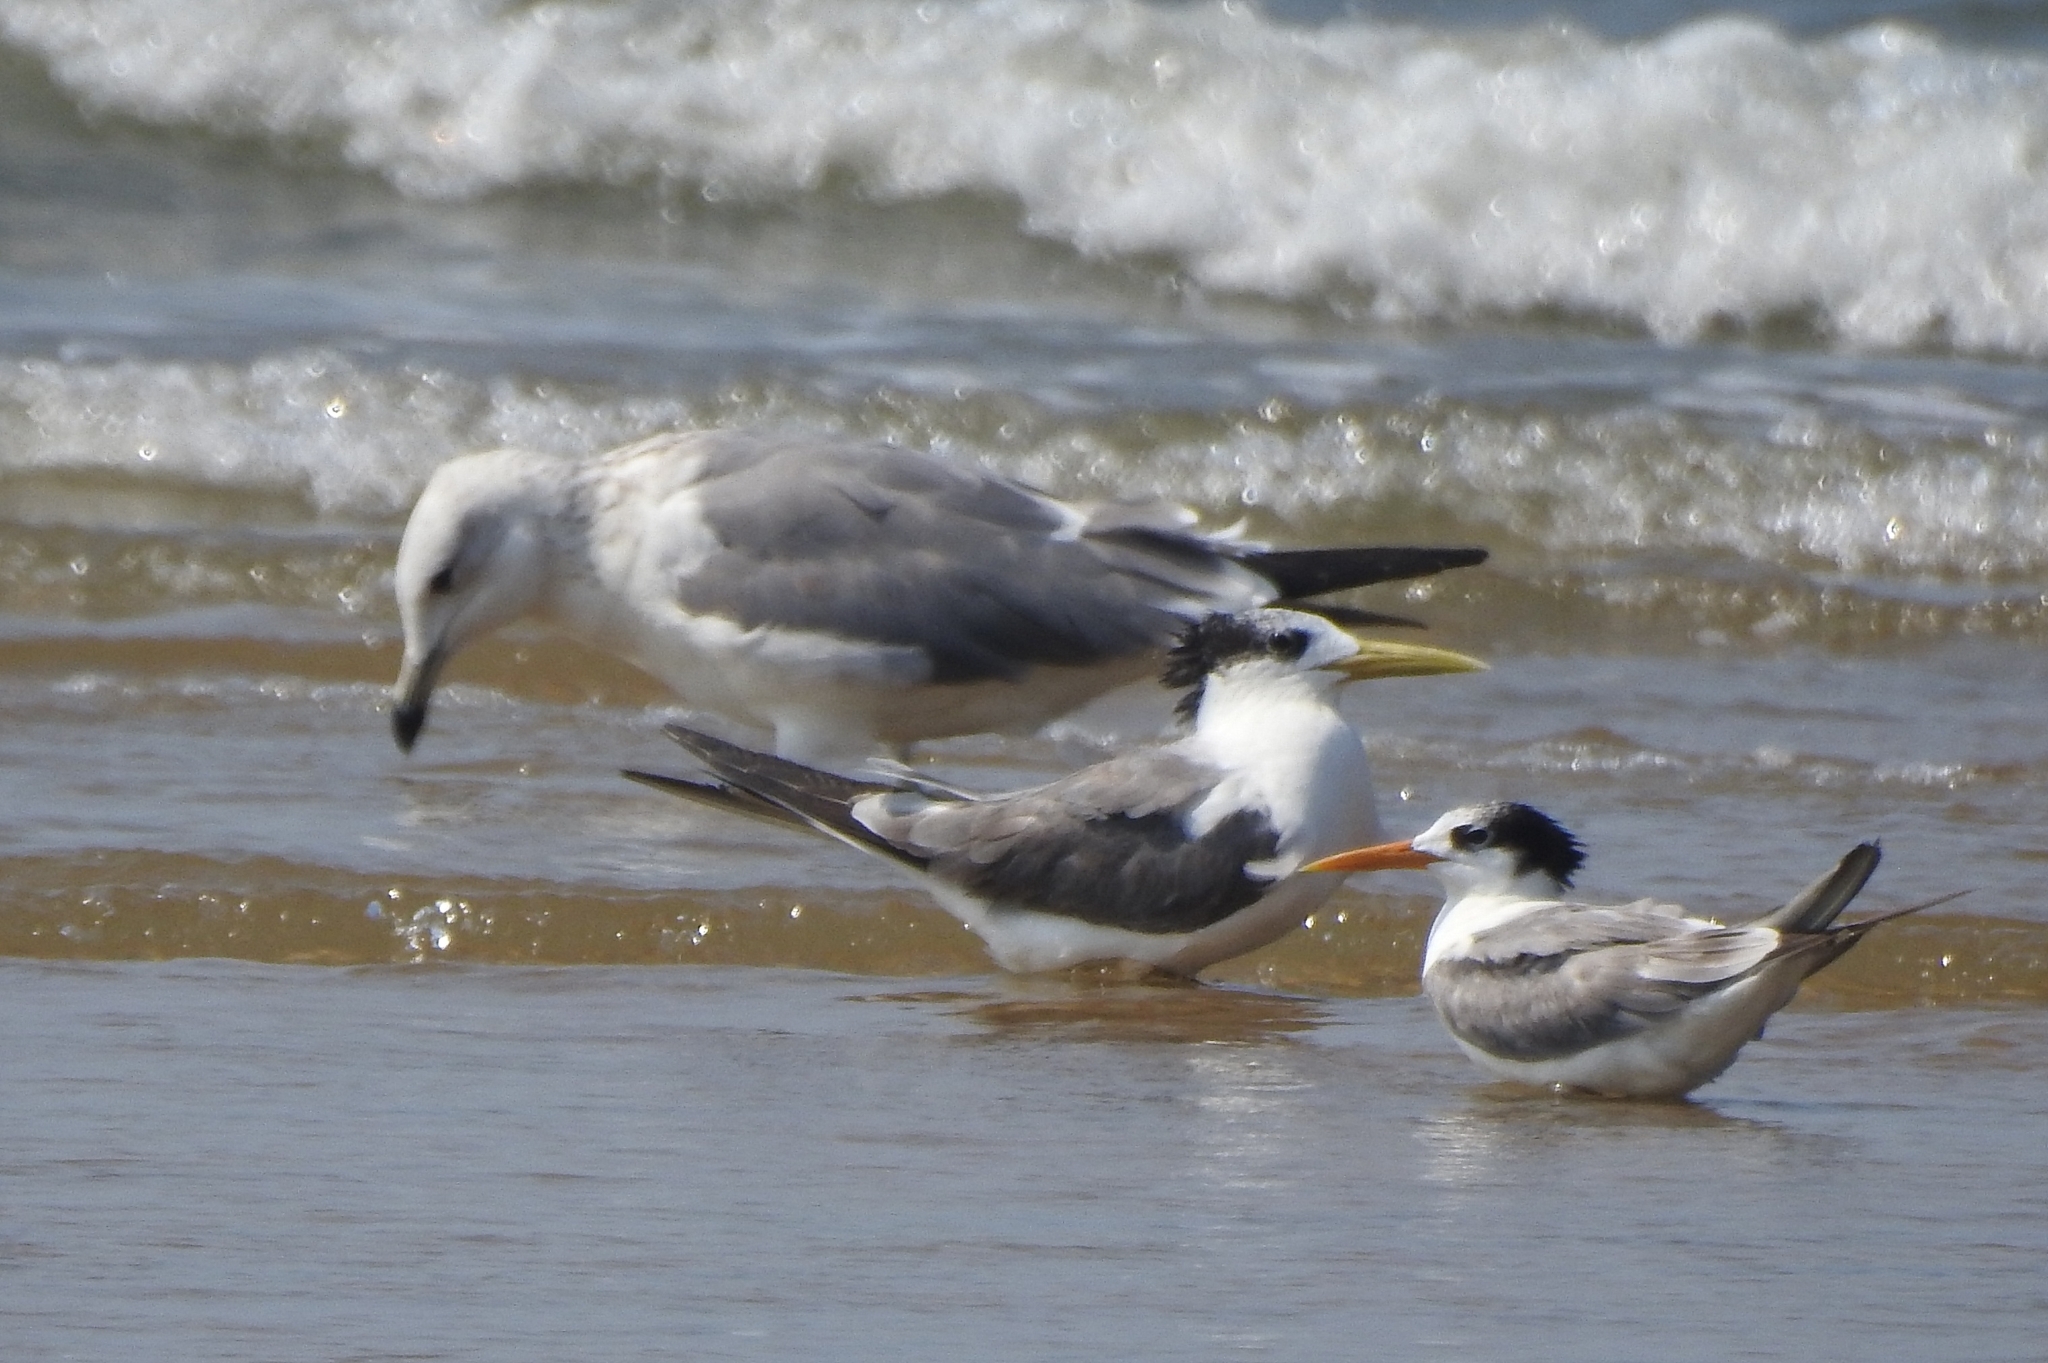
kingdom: Animalia
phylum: Chordata
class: Aves
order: Charadriiformes
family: Laridae
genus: Thalasseus
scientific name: Thalasseus bergii
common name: Greater crested tern
